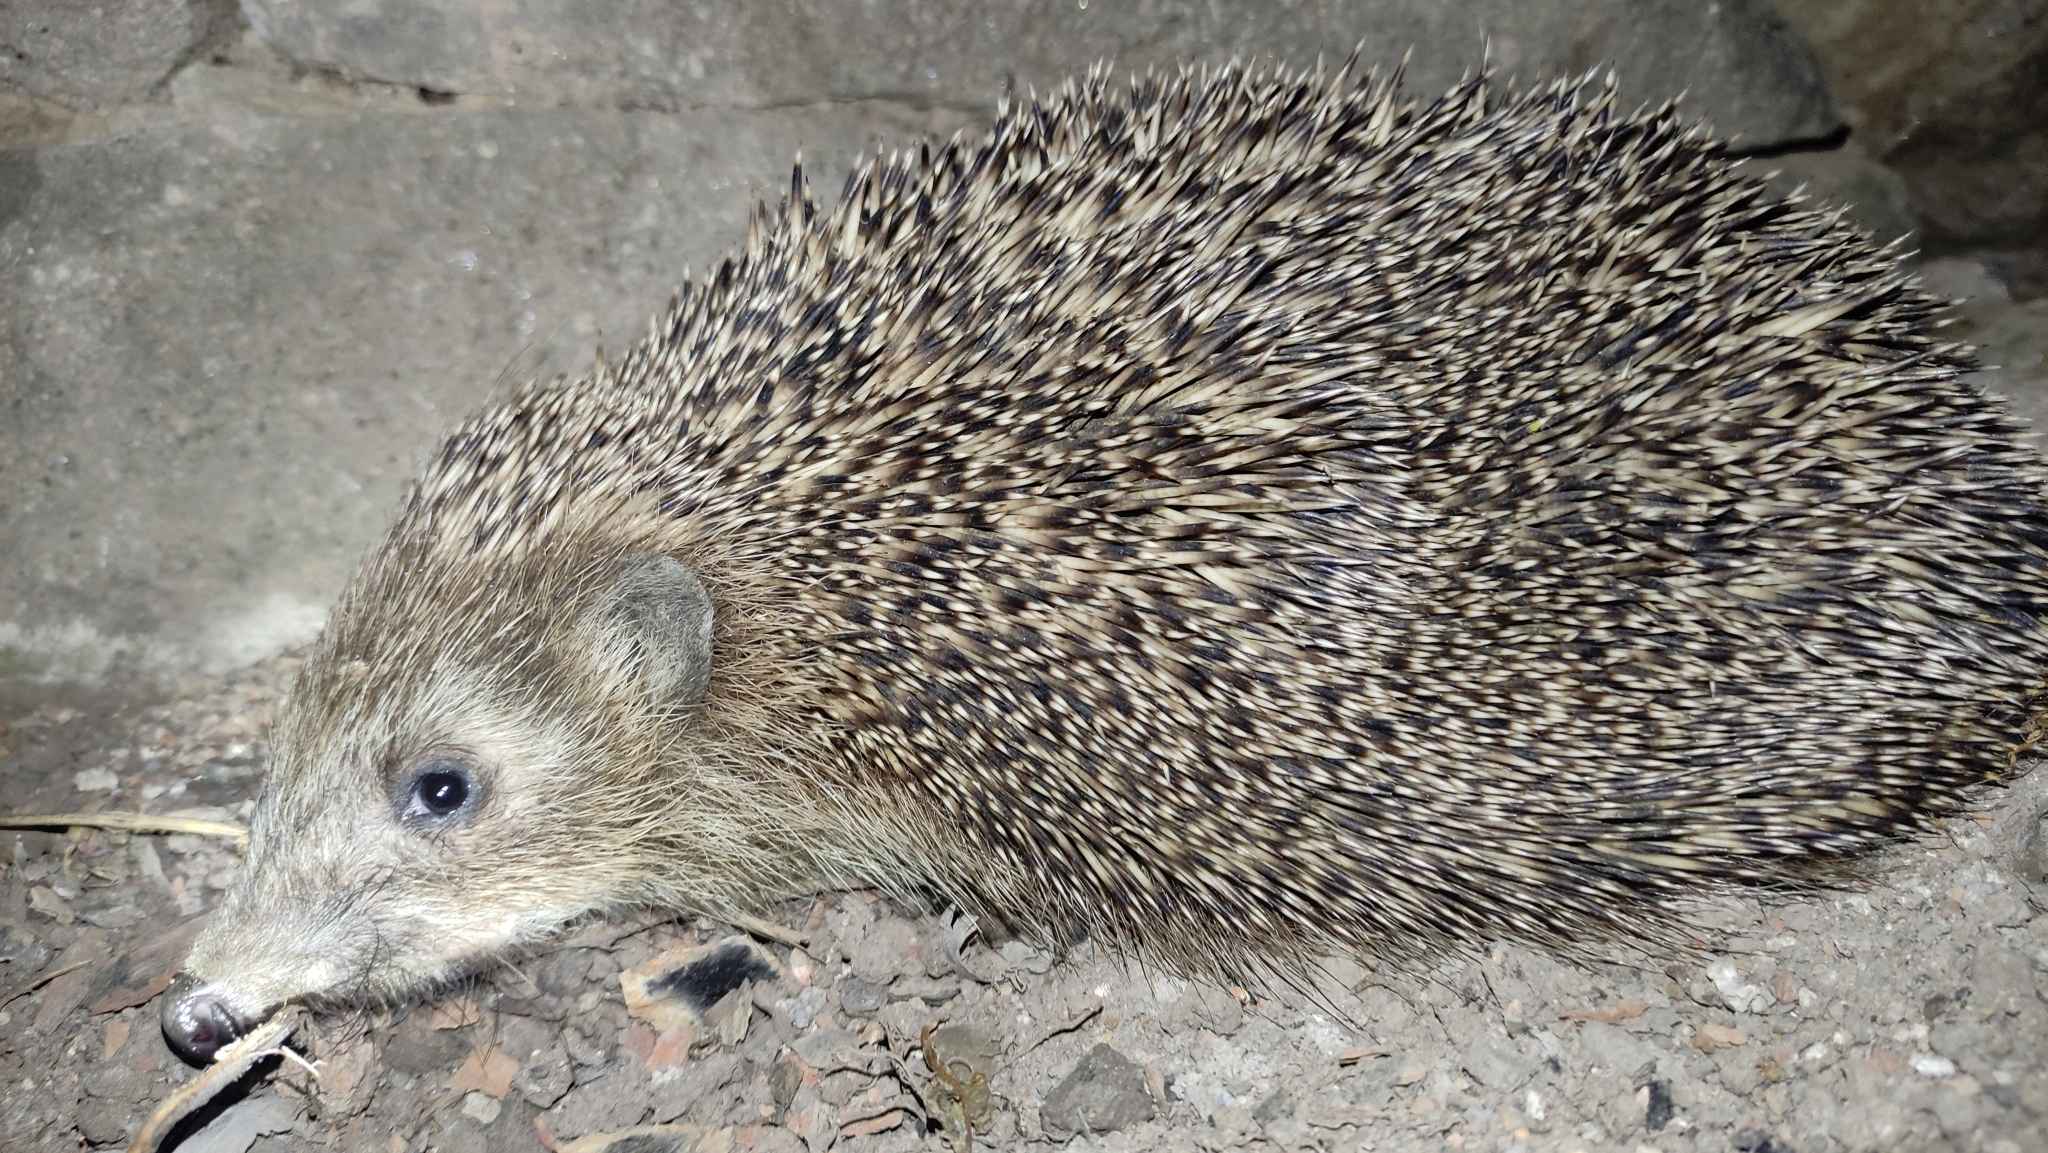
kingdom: Animalia
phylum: Chordata
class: Mammalia
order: Erinaceomorpha
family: Erinaceidae
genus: Erinaceus
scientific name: Erinaceus roumanicus
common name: Northern white-breasted hedgehog
